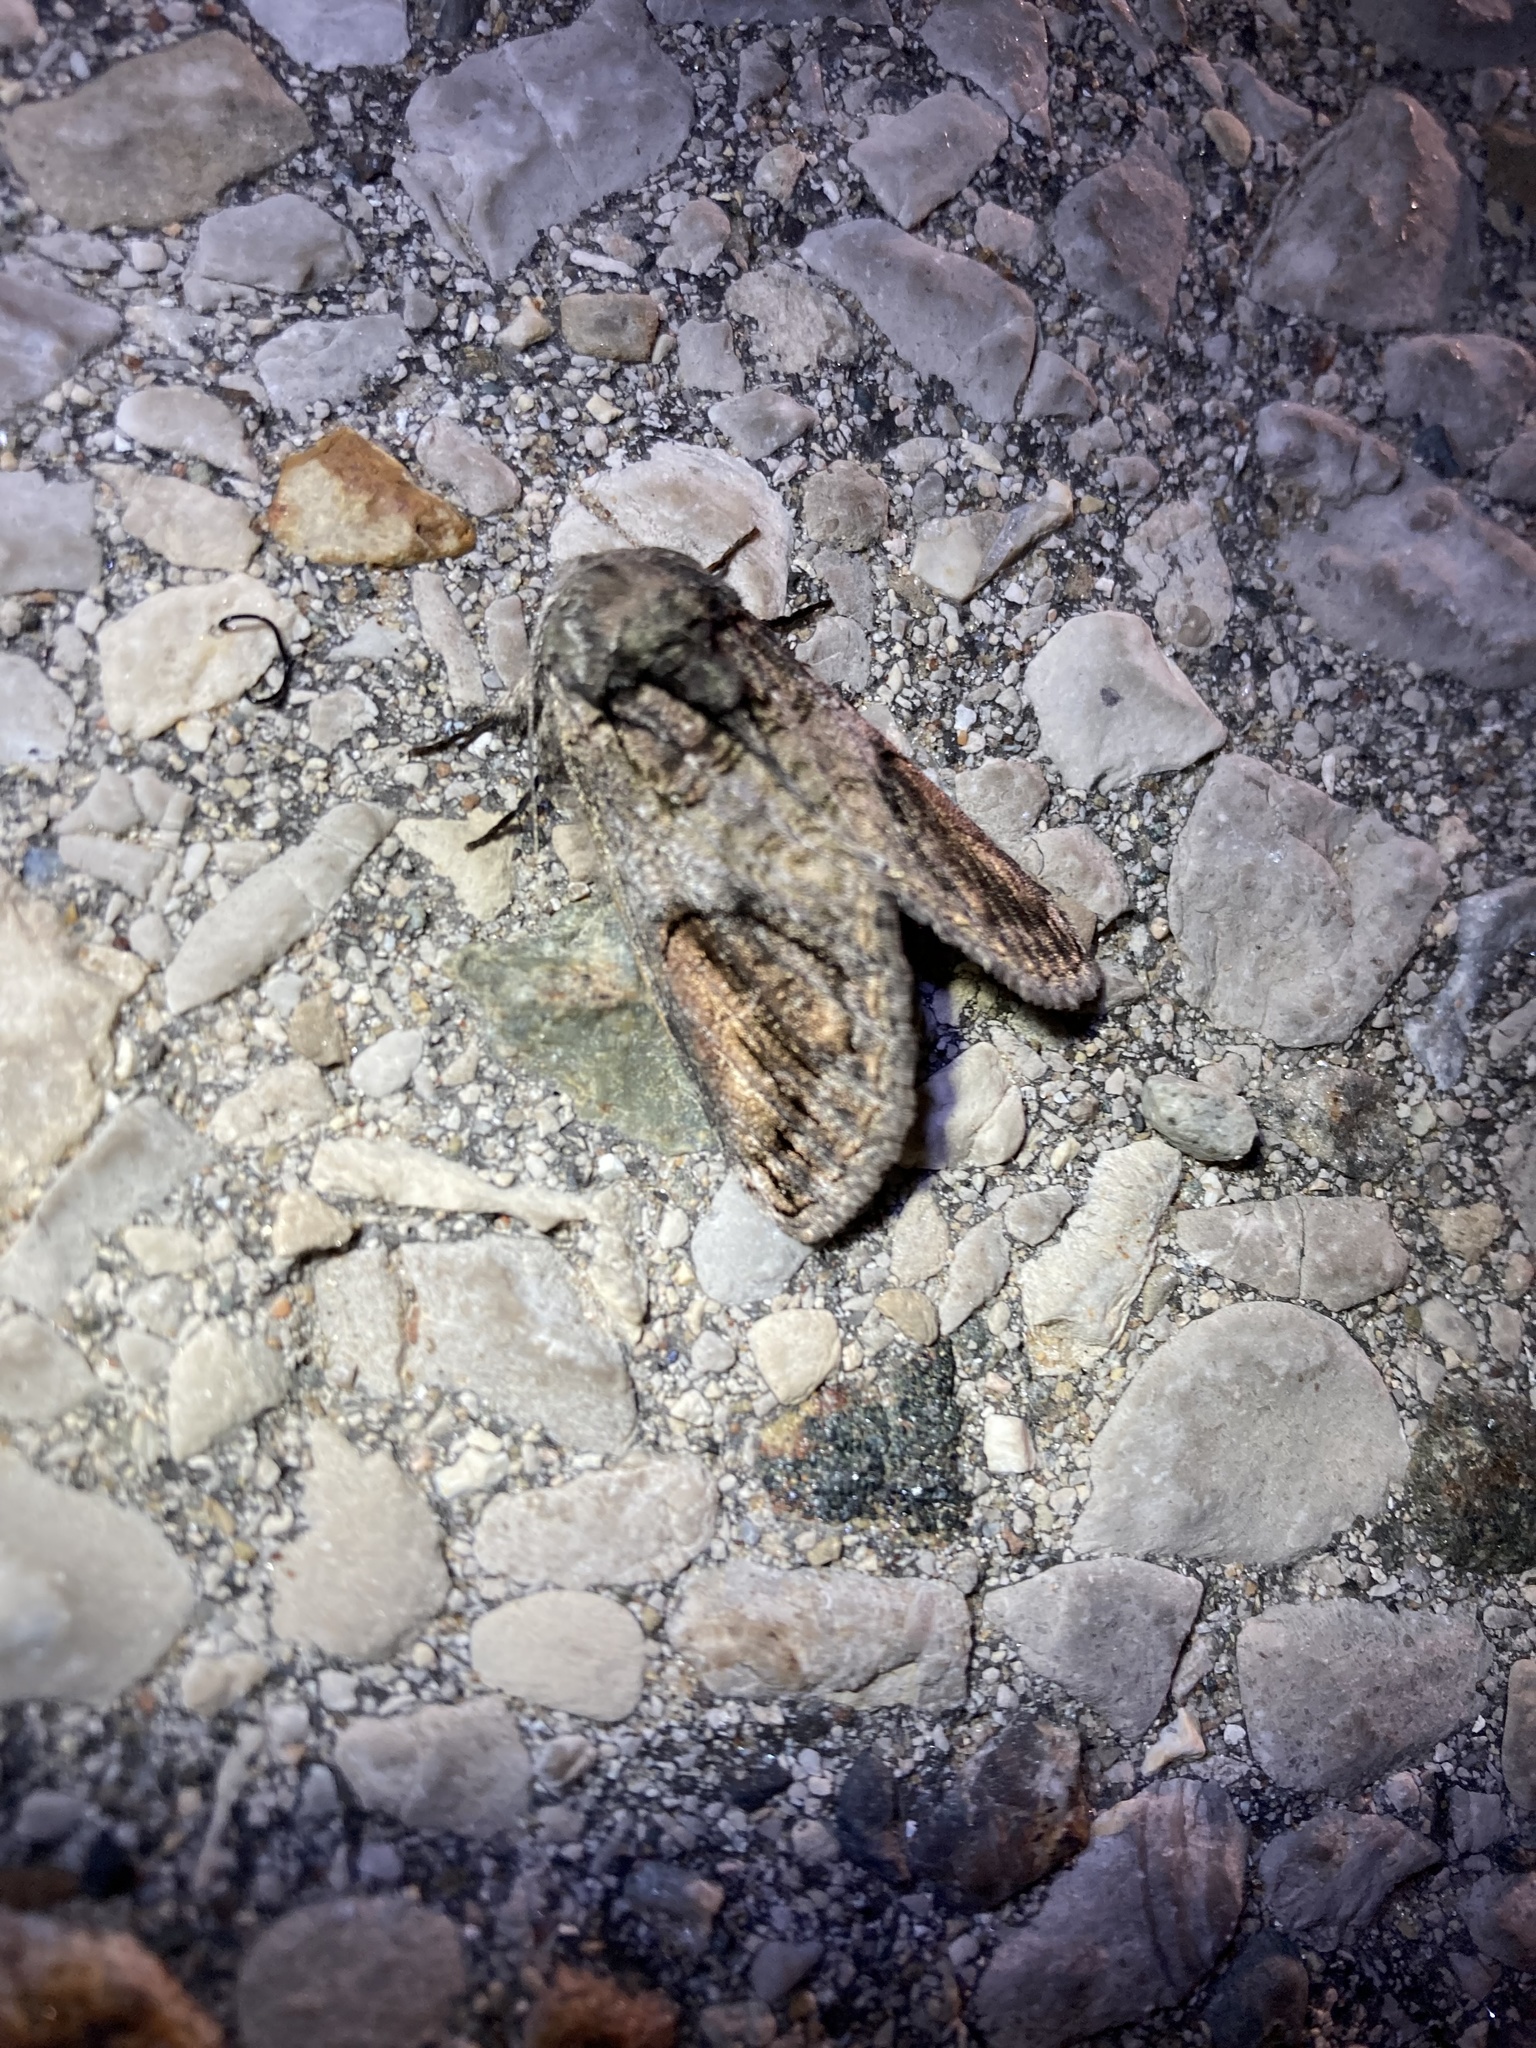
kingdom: Animalia
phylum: Arthropoda
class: Insecta
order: Lepidoptera
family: Notodontidae
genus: Heterocampa
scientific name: Heterocampa obliqua
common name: Oblique heterocampa
